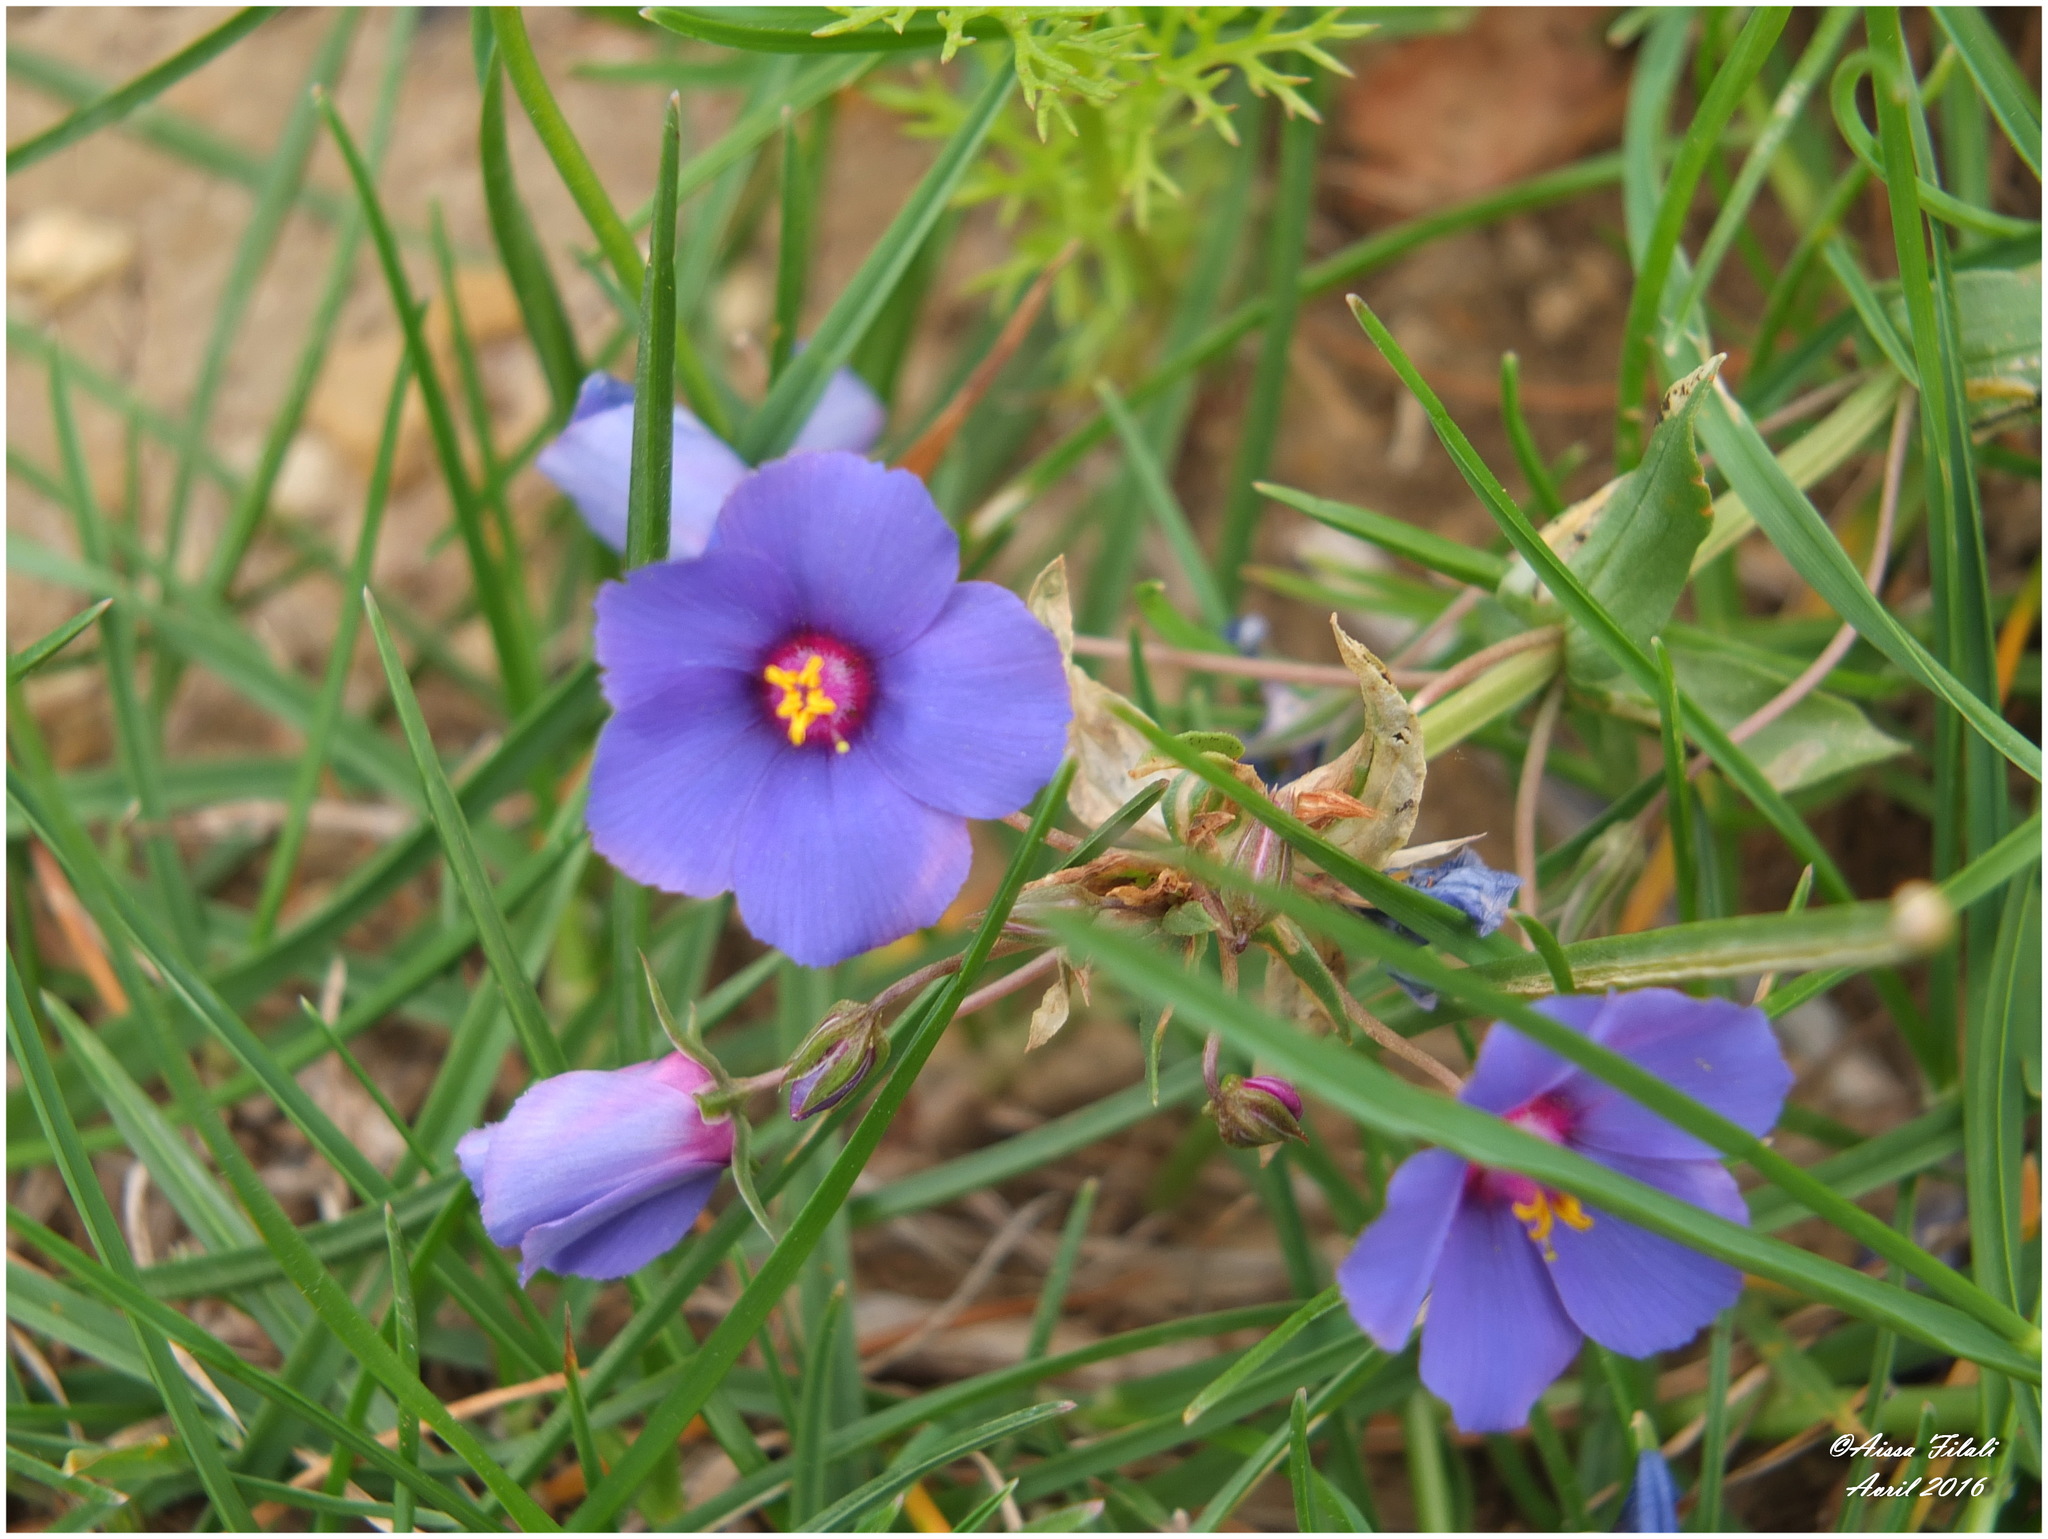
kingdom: Plantae
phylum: Tracheophyta
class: Magnoliopsida
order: Ericales
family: Primulaceae
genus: Lysimachia
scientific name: Lysimachia arvensis
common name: Scarlet pimpernel
